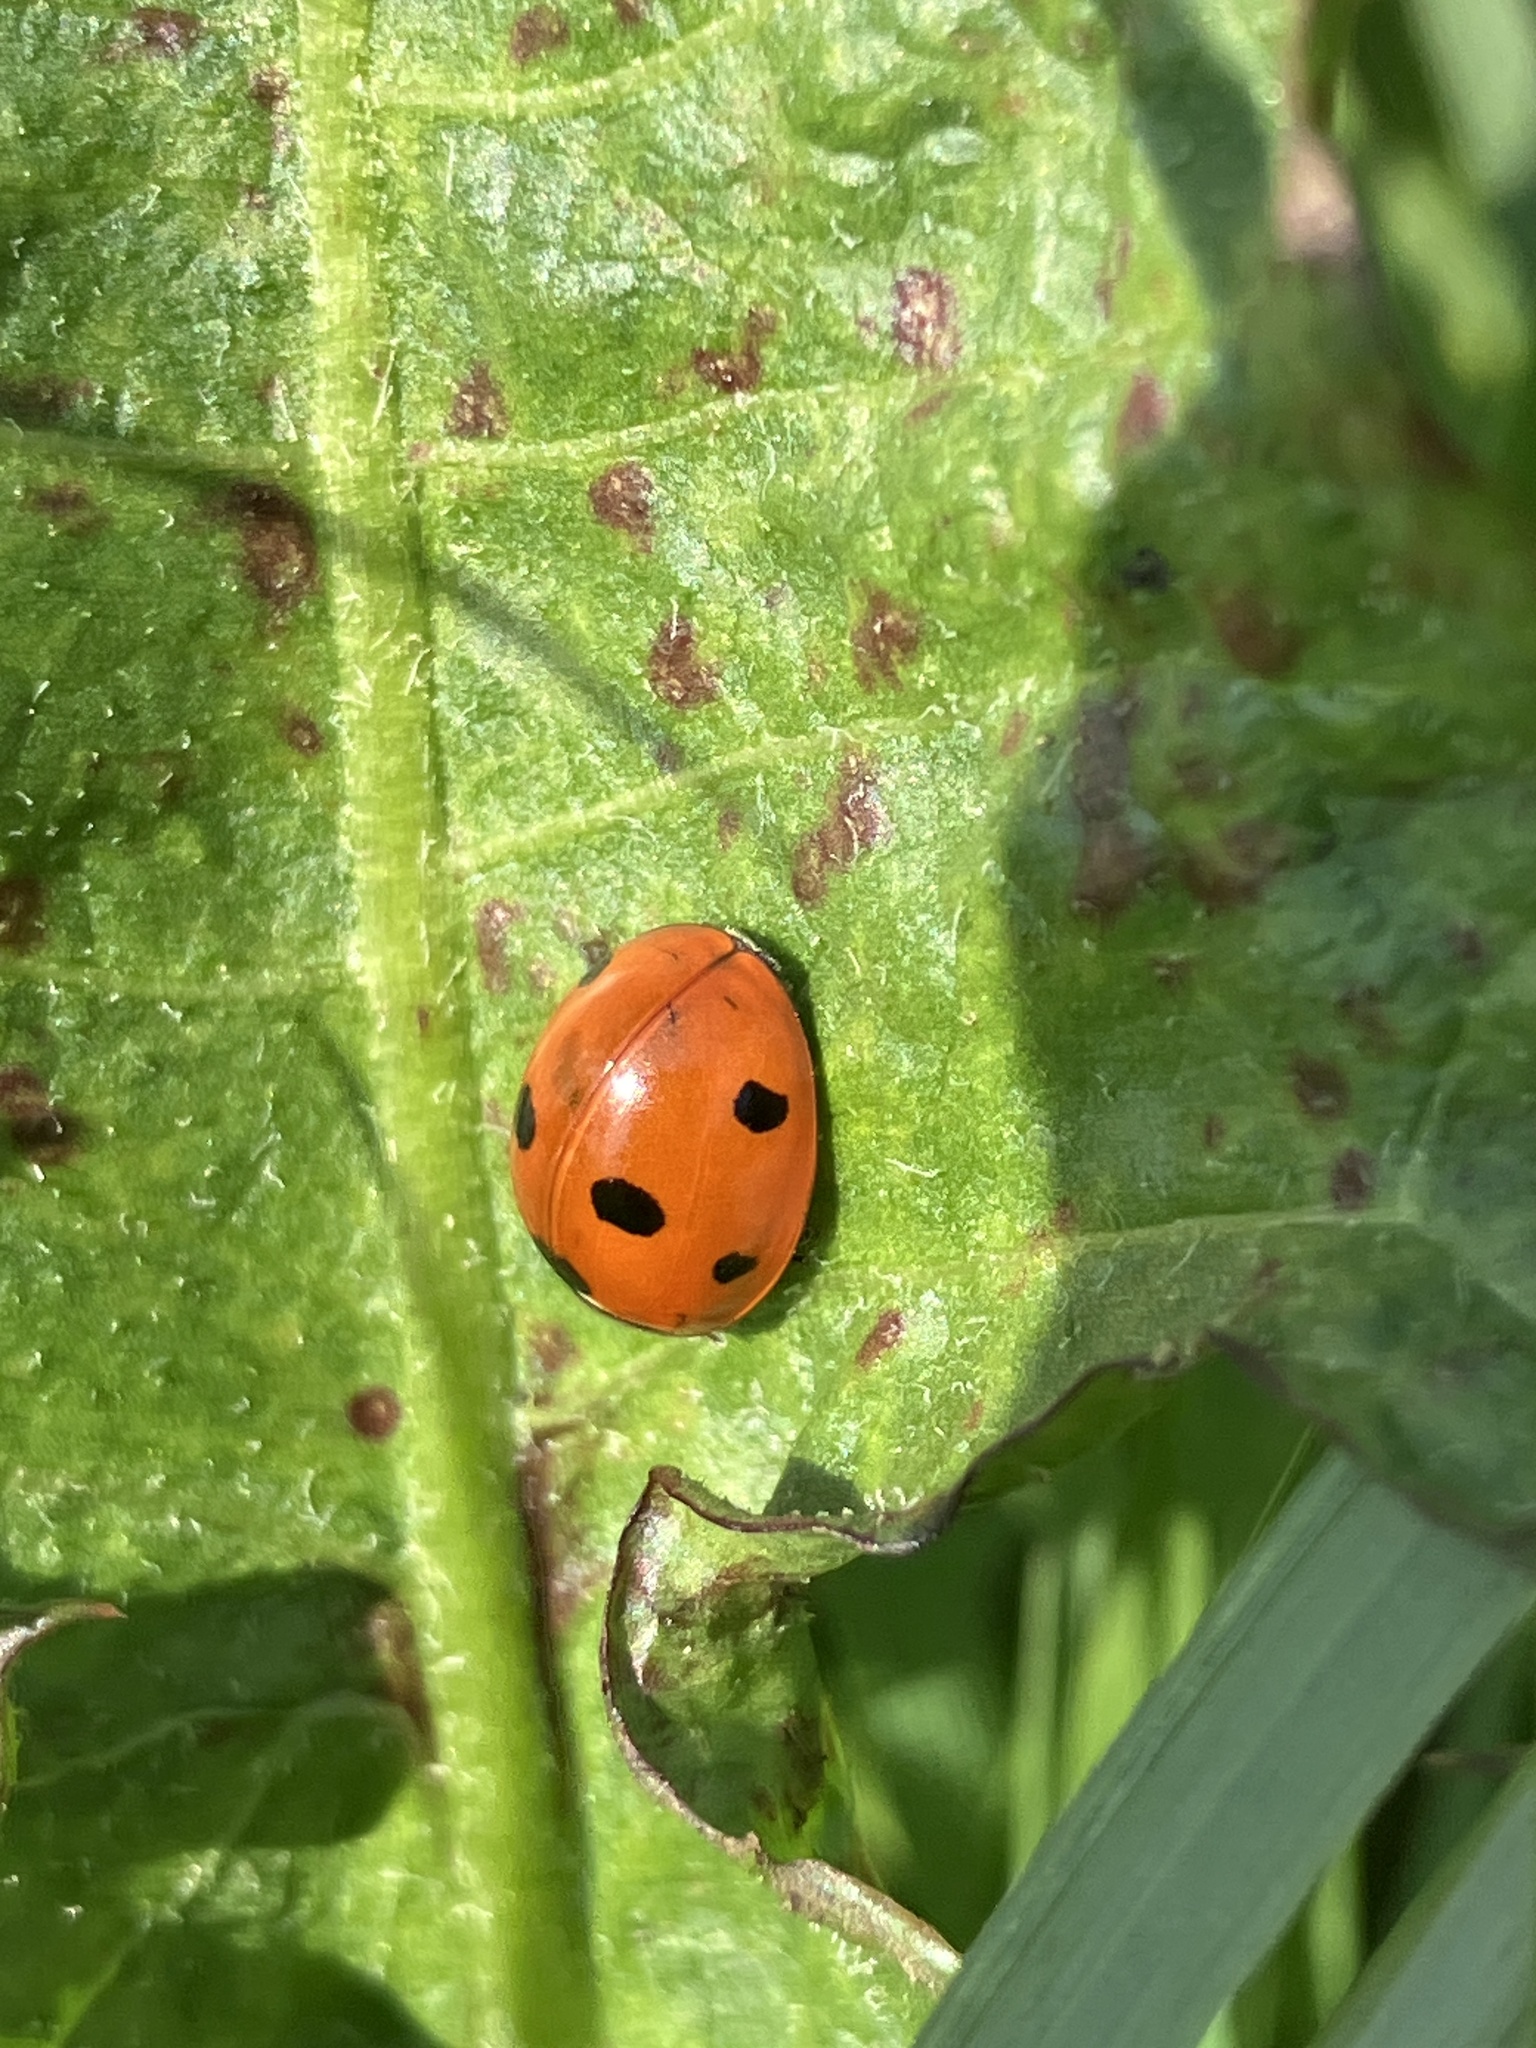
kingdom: Animalia
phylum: Arthropoda
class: Insecta
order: Coleoptera
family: Coccinellidae
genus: Coccinella
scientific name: Coccinella septempunctata
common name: Sevenspotted lady beetle
